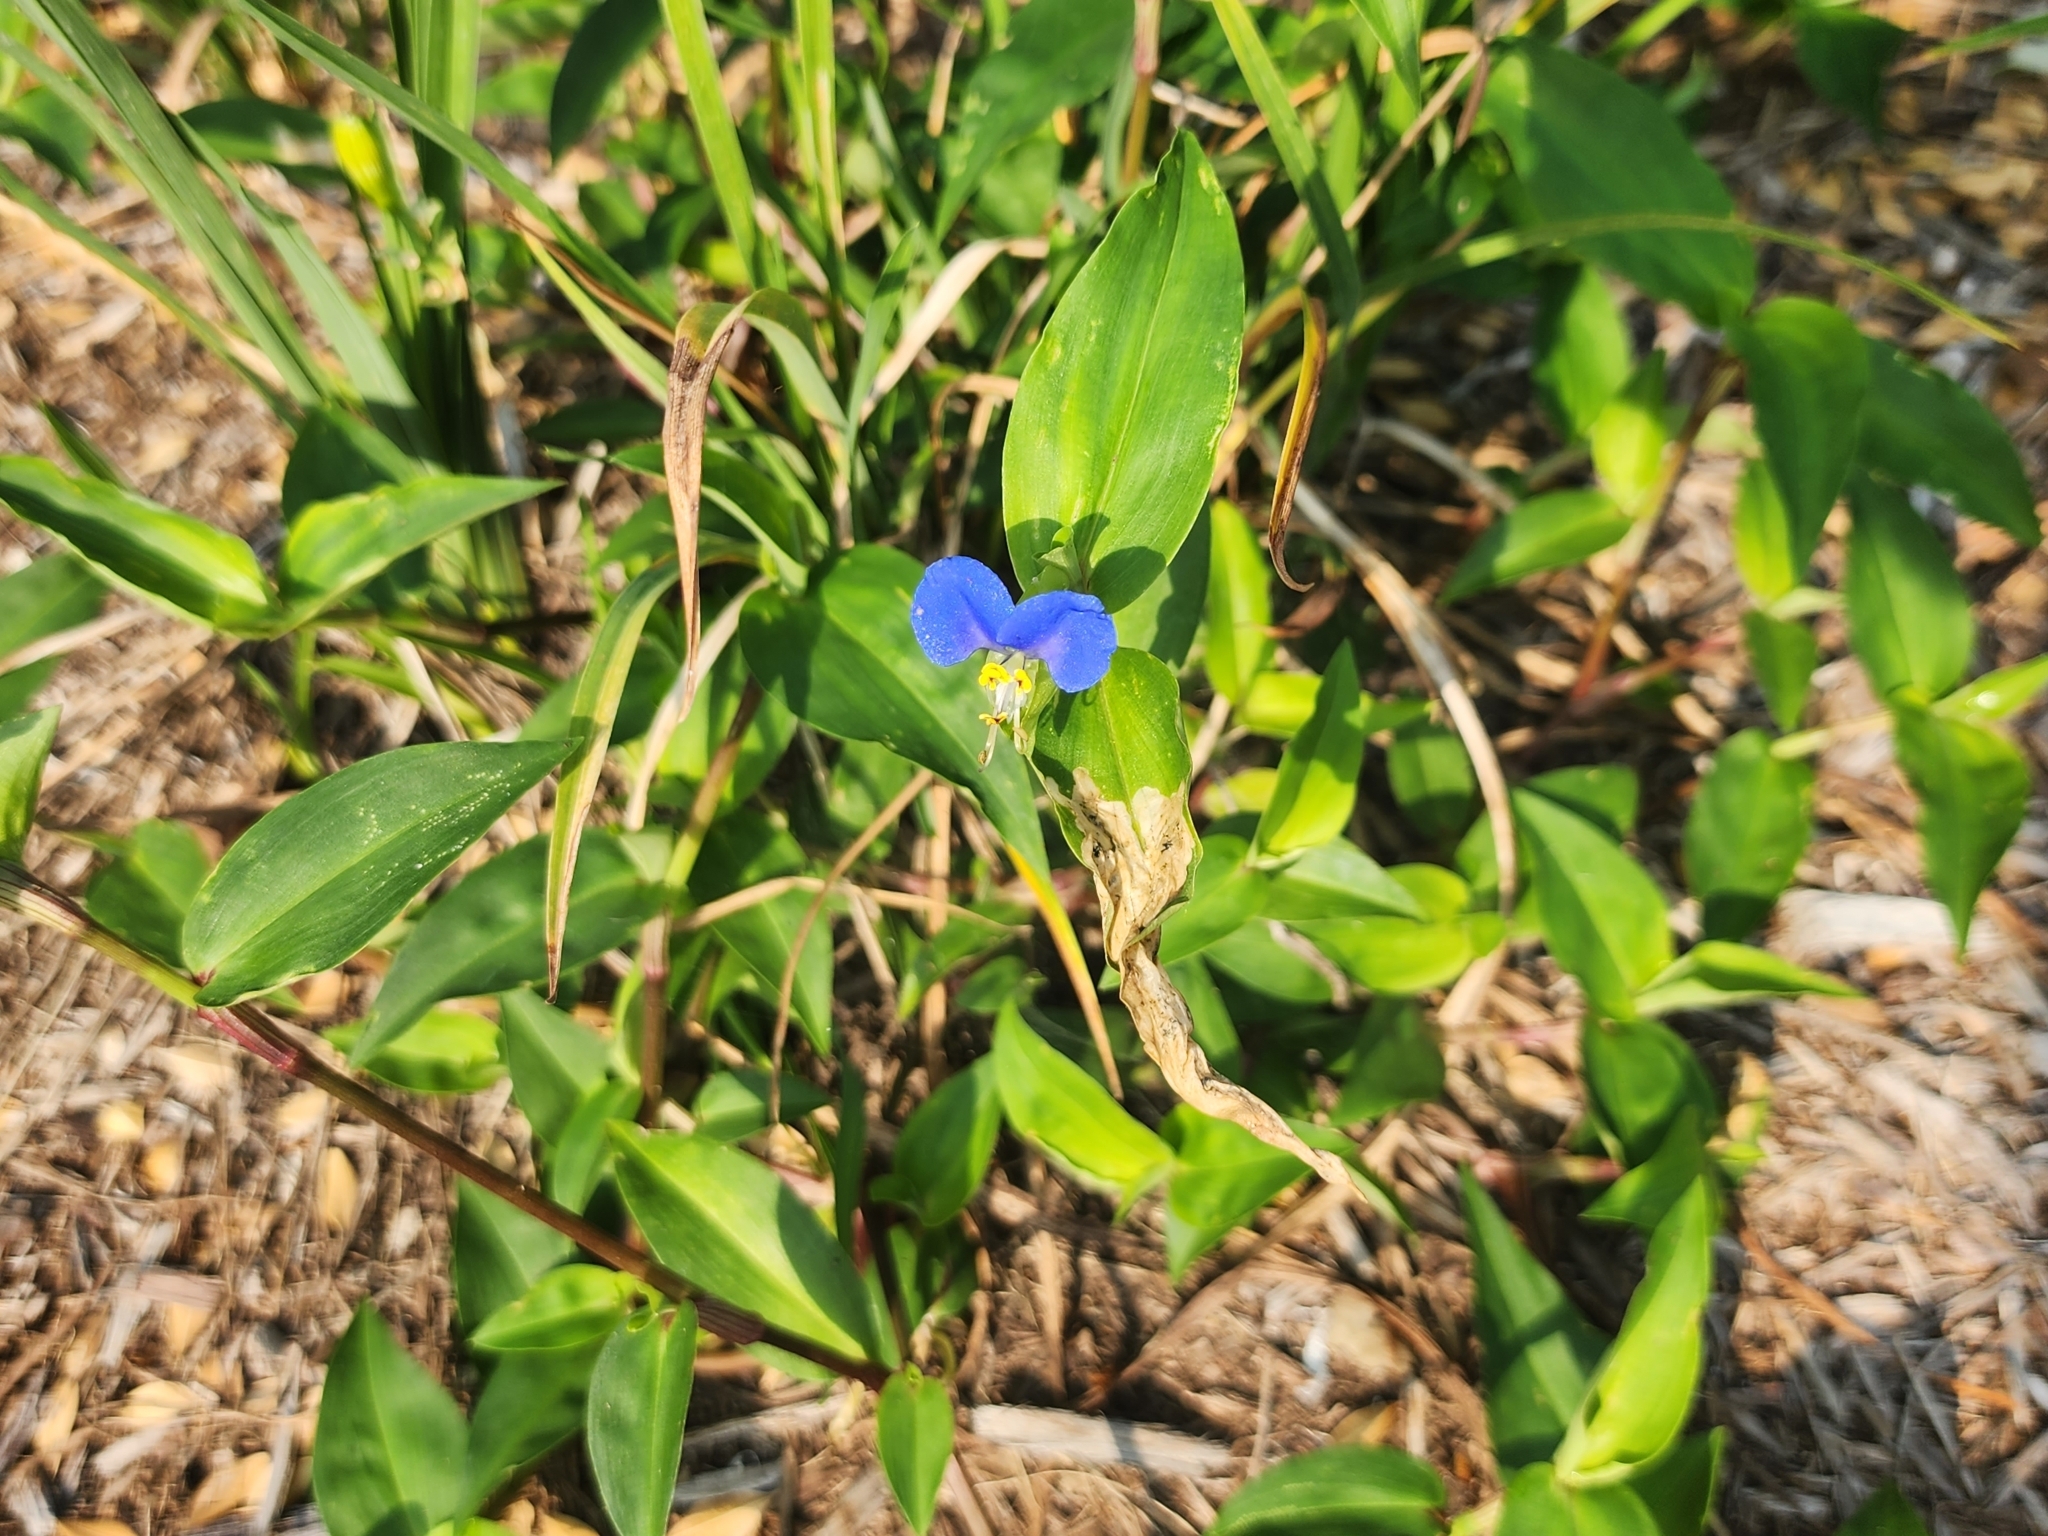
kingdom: Plantae
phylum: Tracheophyta
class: Liliopsida
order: Commelinales
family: Commelinaceae
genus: Commelina
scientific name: Commelina communis
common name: Asiatic dayflower
